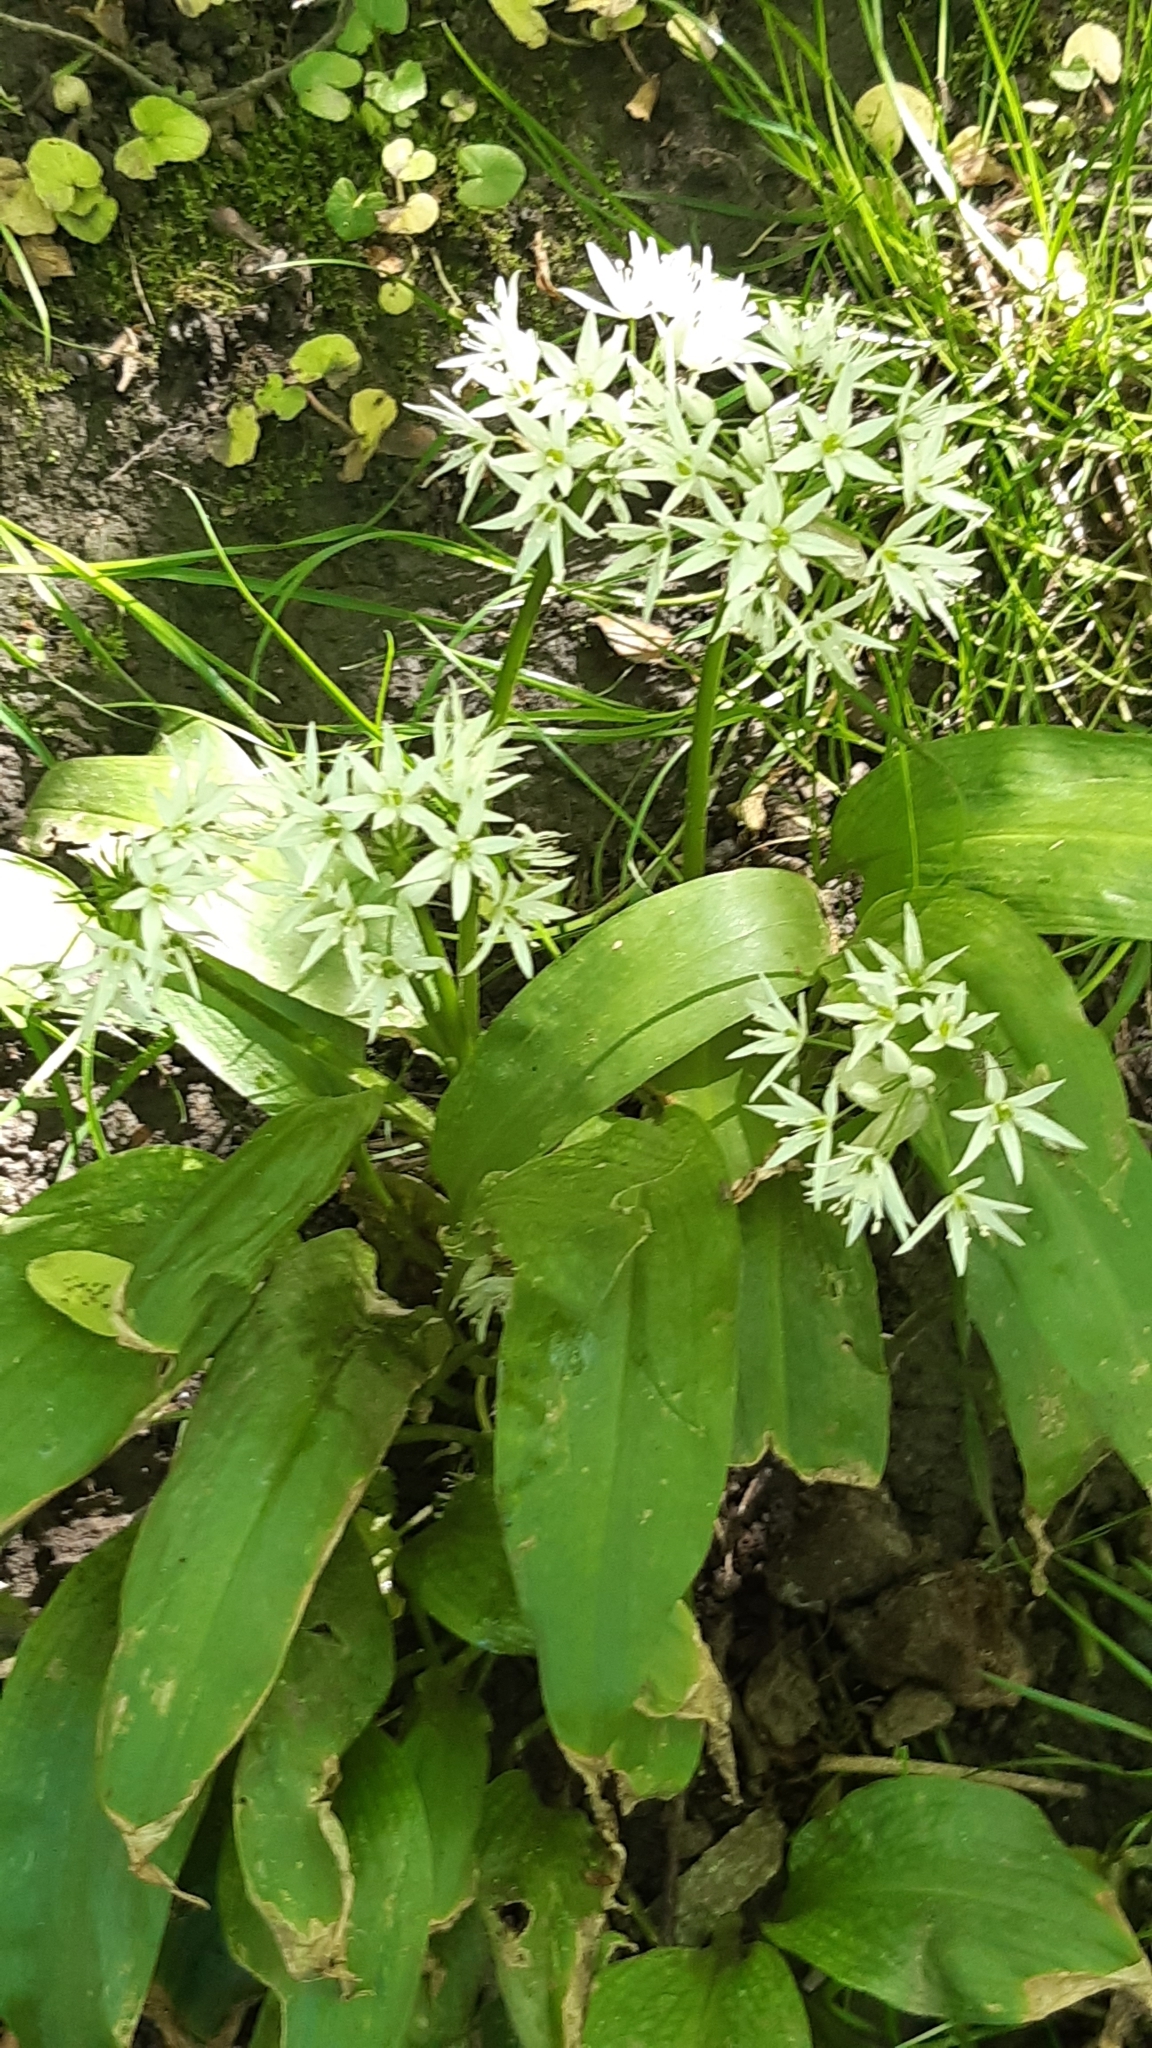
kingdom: Plantae
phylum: Tracheophyta
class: Liliopsida
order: Asparagales
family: Amaryllidaceae
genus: Allium
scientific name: Allium ursinum
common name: Ramsons
